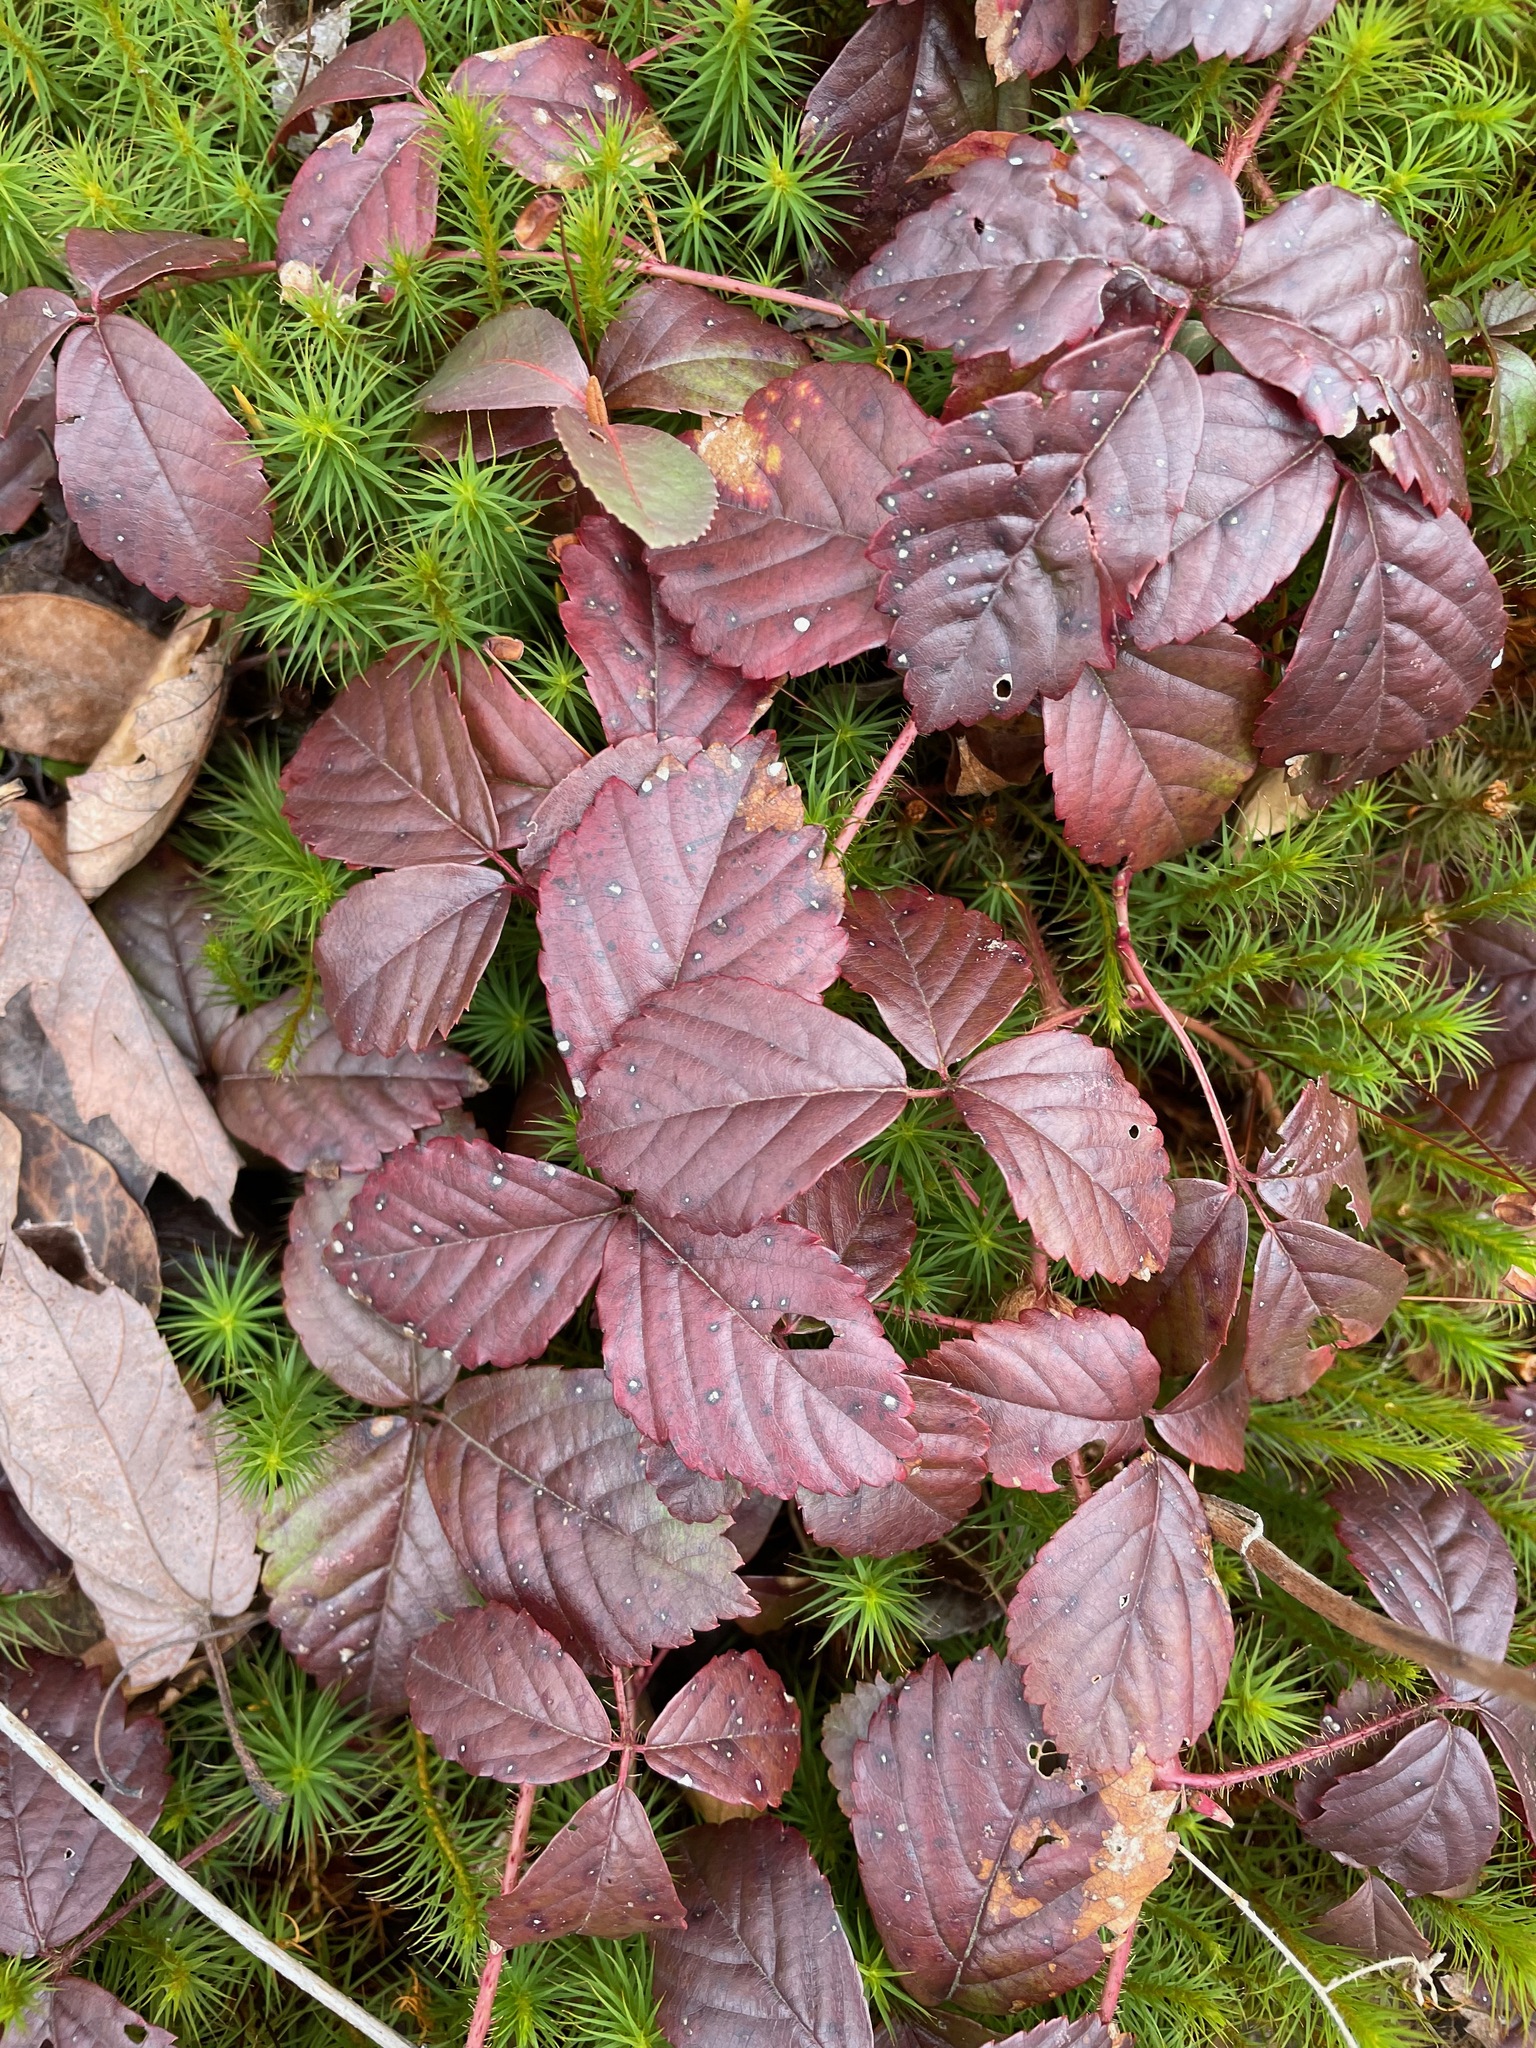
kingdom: Plantae
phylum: Tracheophyta
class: Magnoliopsida
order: Rosales
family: Rosaceae
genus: Rubus
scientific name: Rubus hispidus
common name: Running blackberry
